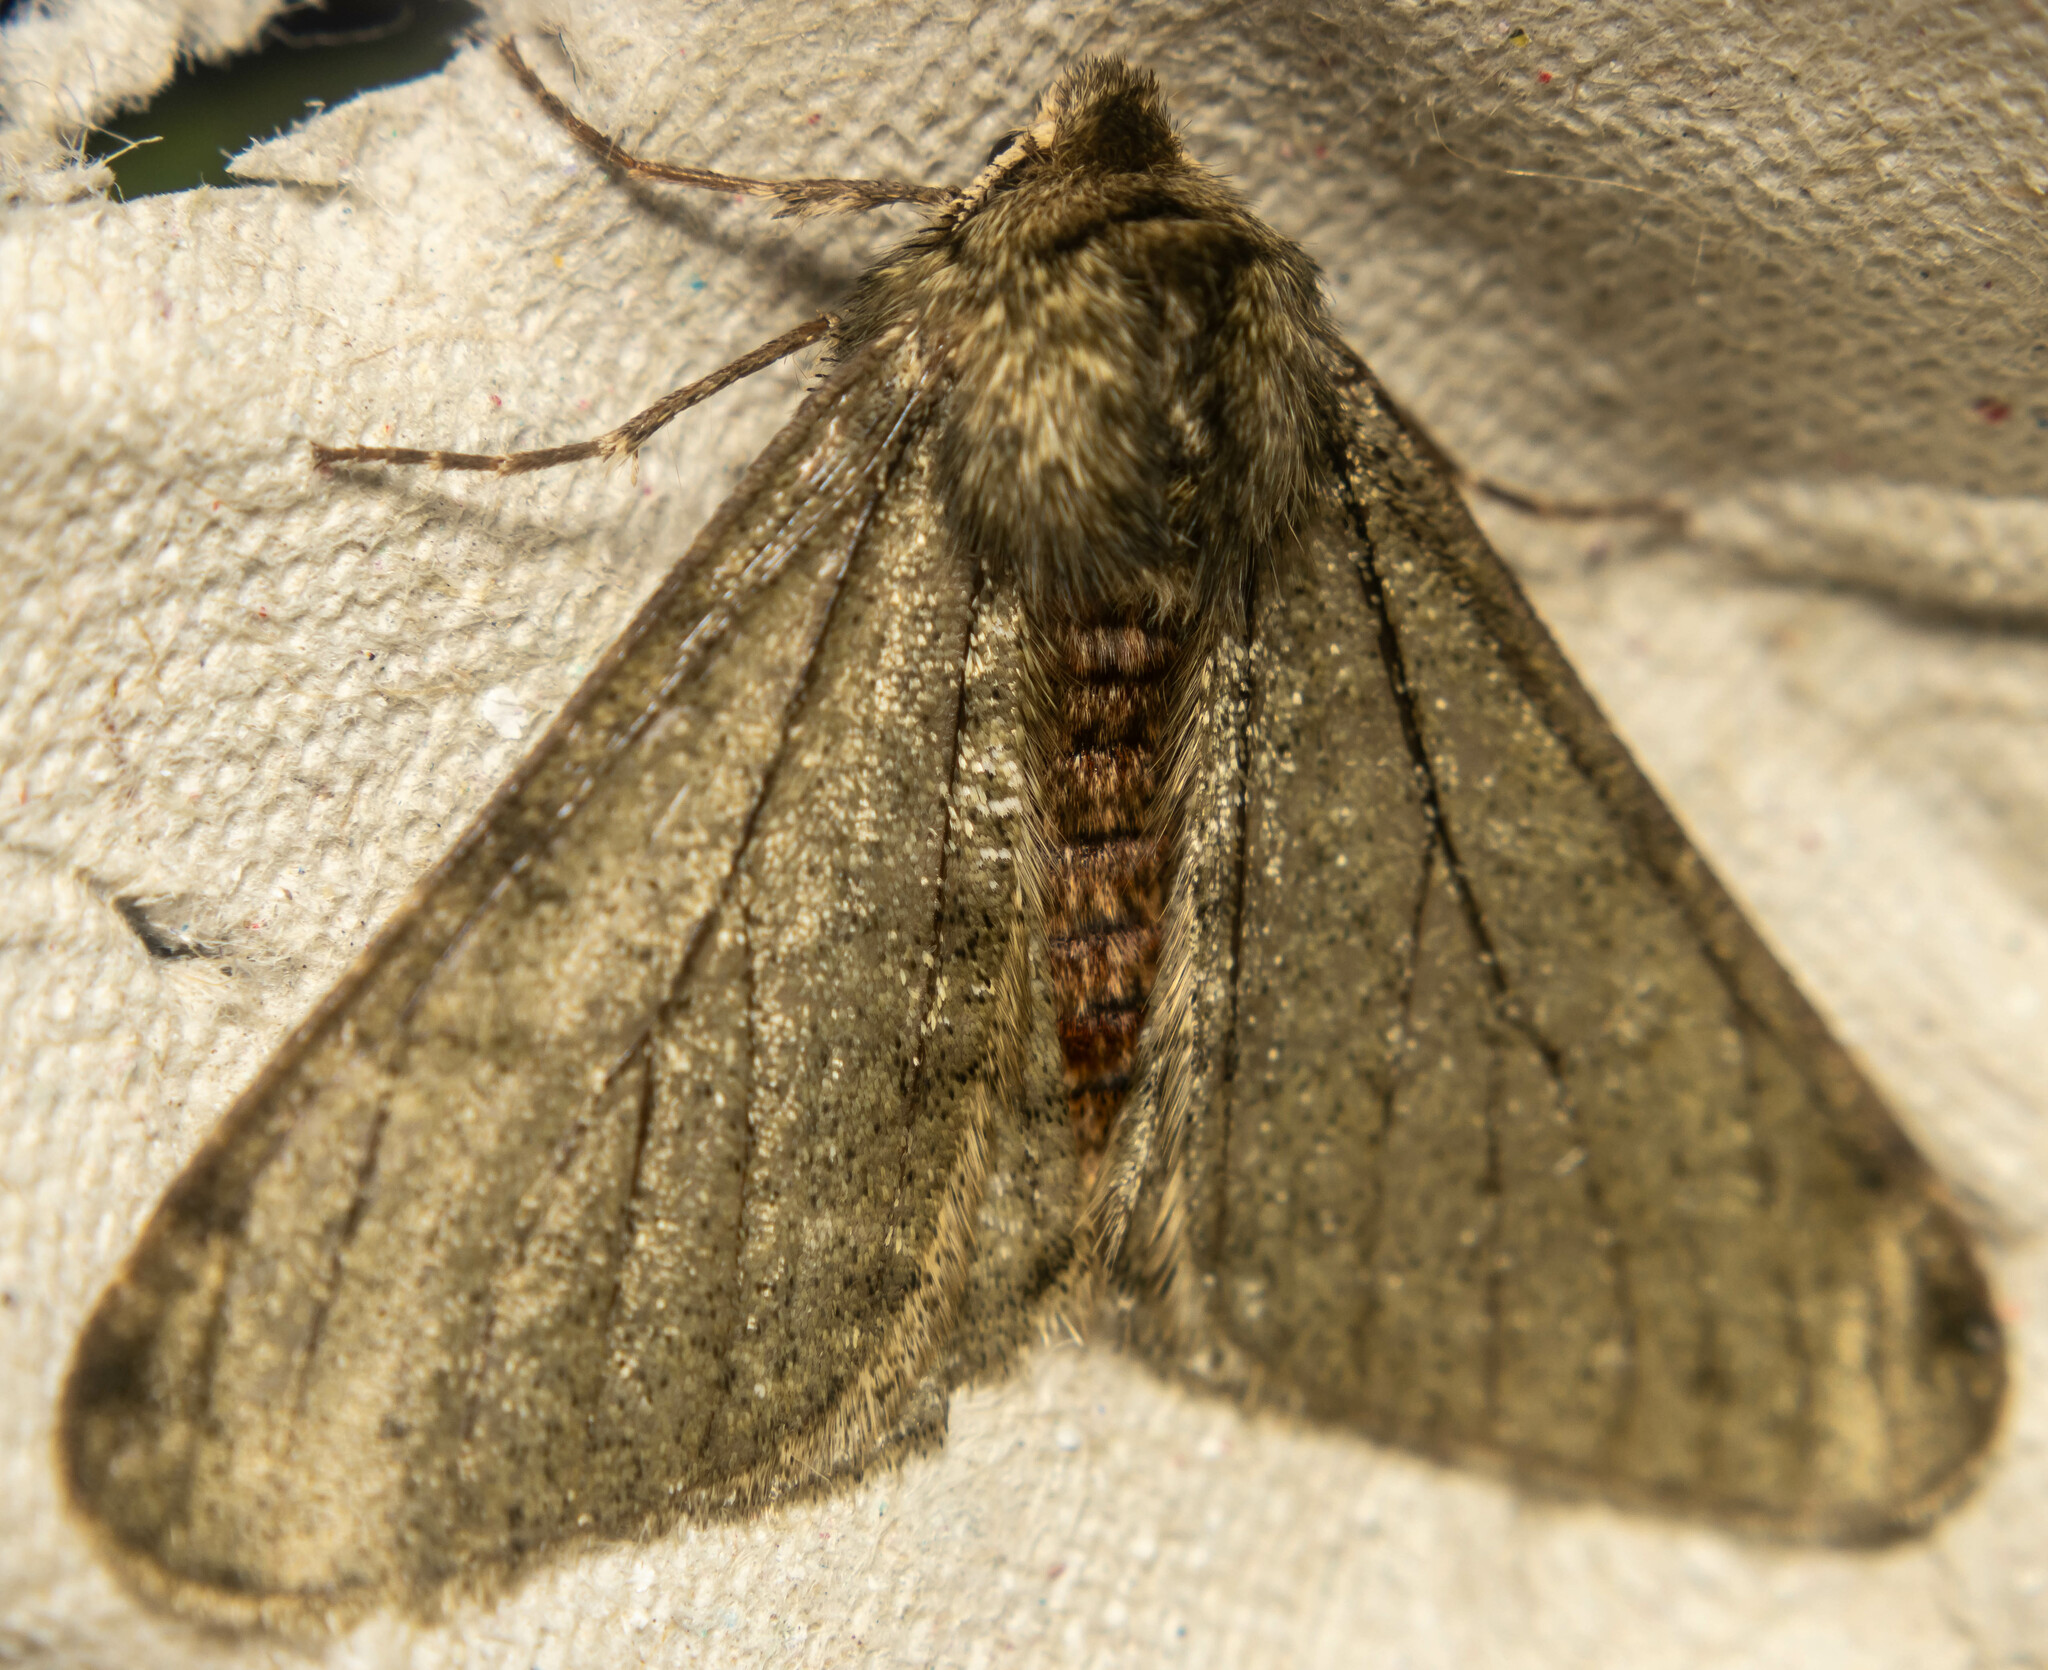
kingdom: Animalia
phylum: Arthropoda
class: Insecta
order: Lepidoptera
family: Geometridae
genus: Phigalia
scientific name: Phigalia pilosaria
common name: Pale brindled beauty
